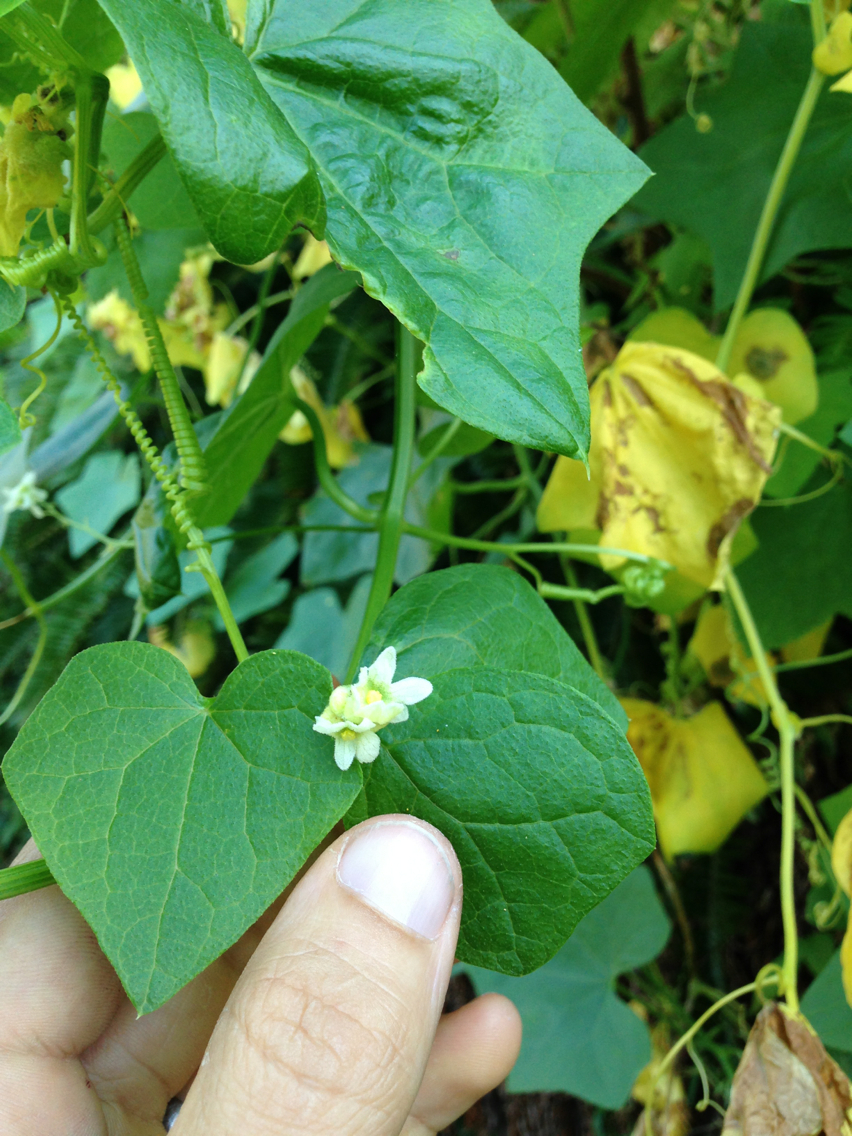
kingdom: Plantae
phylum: Tracheophyta
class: Magnoliopsida
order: Cucurbitales
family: Cucurbitaceae
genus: Marah
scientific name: Marah fabacea
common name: California manroot
